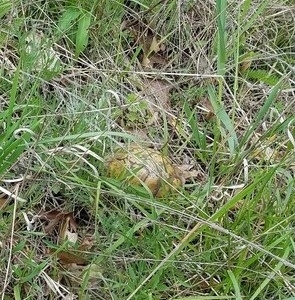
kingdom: Animalia
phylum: Chordata
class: Testudines
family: Emydidae
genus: Terrapene
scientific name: Terrapene carolina
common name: Common box turtle
